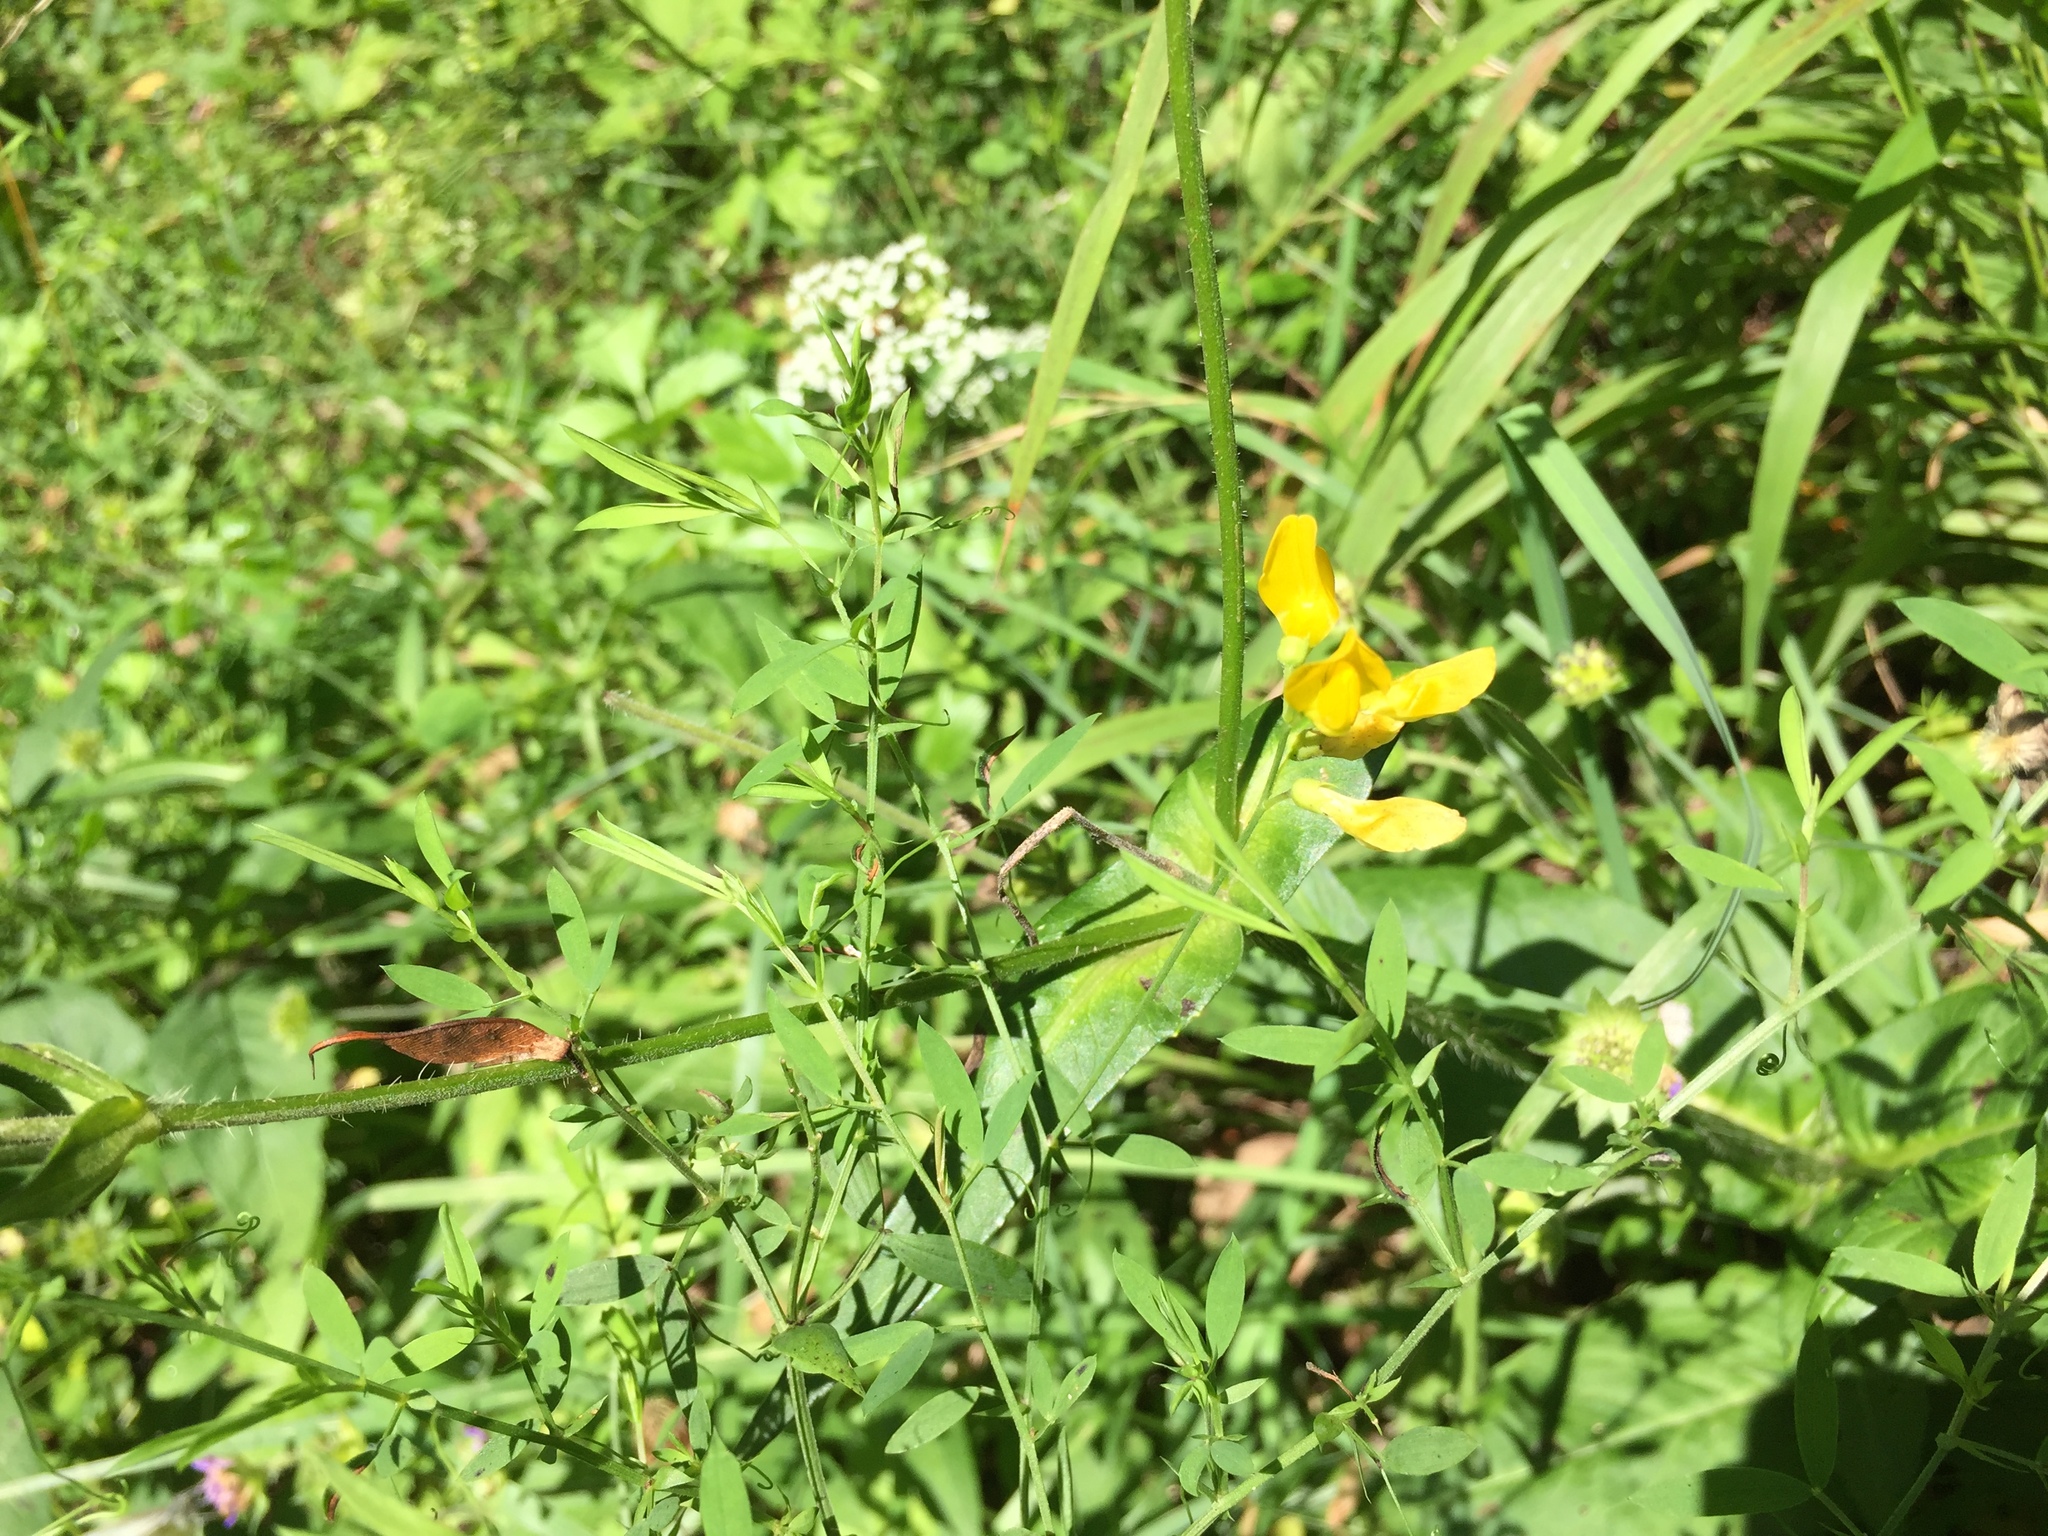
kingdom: Plantae
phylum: Tracheophyta
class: Magnoliopsida
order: Fabales
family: Fabaceae
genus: Lathyrus
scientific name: Lathyrus pratensis
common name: Meadow vetchling
